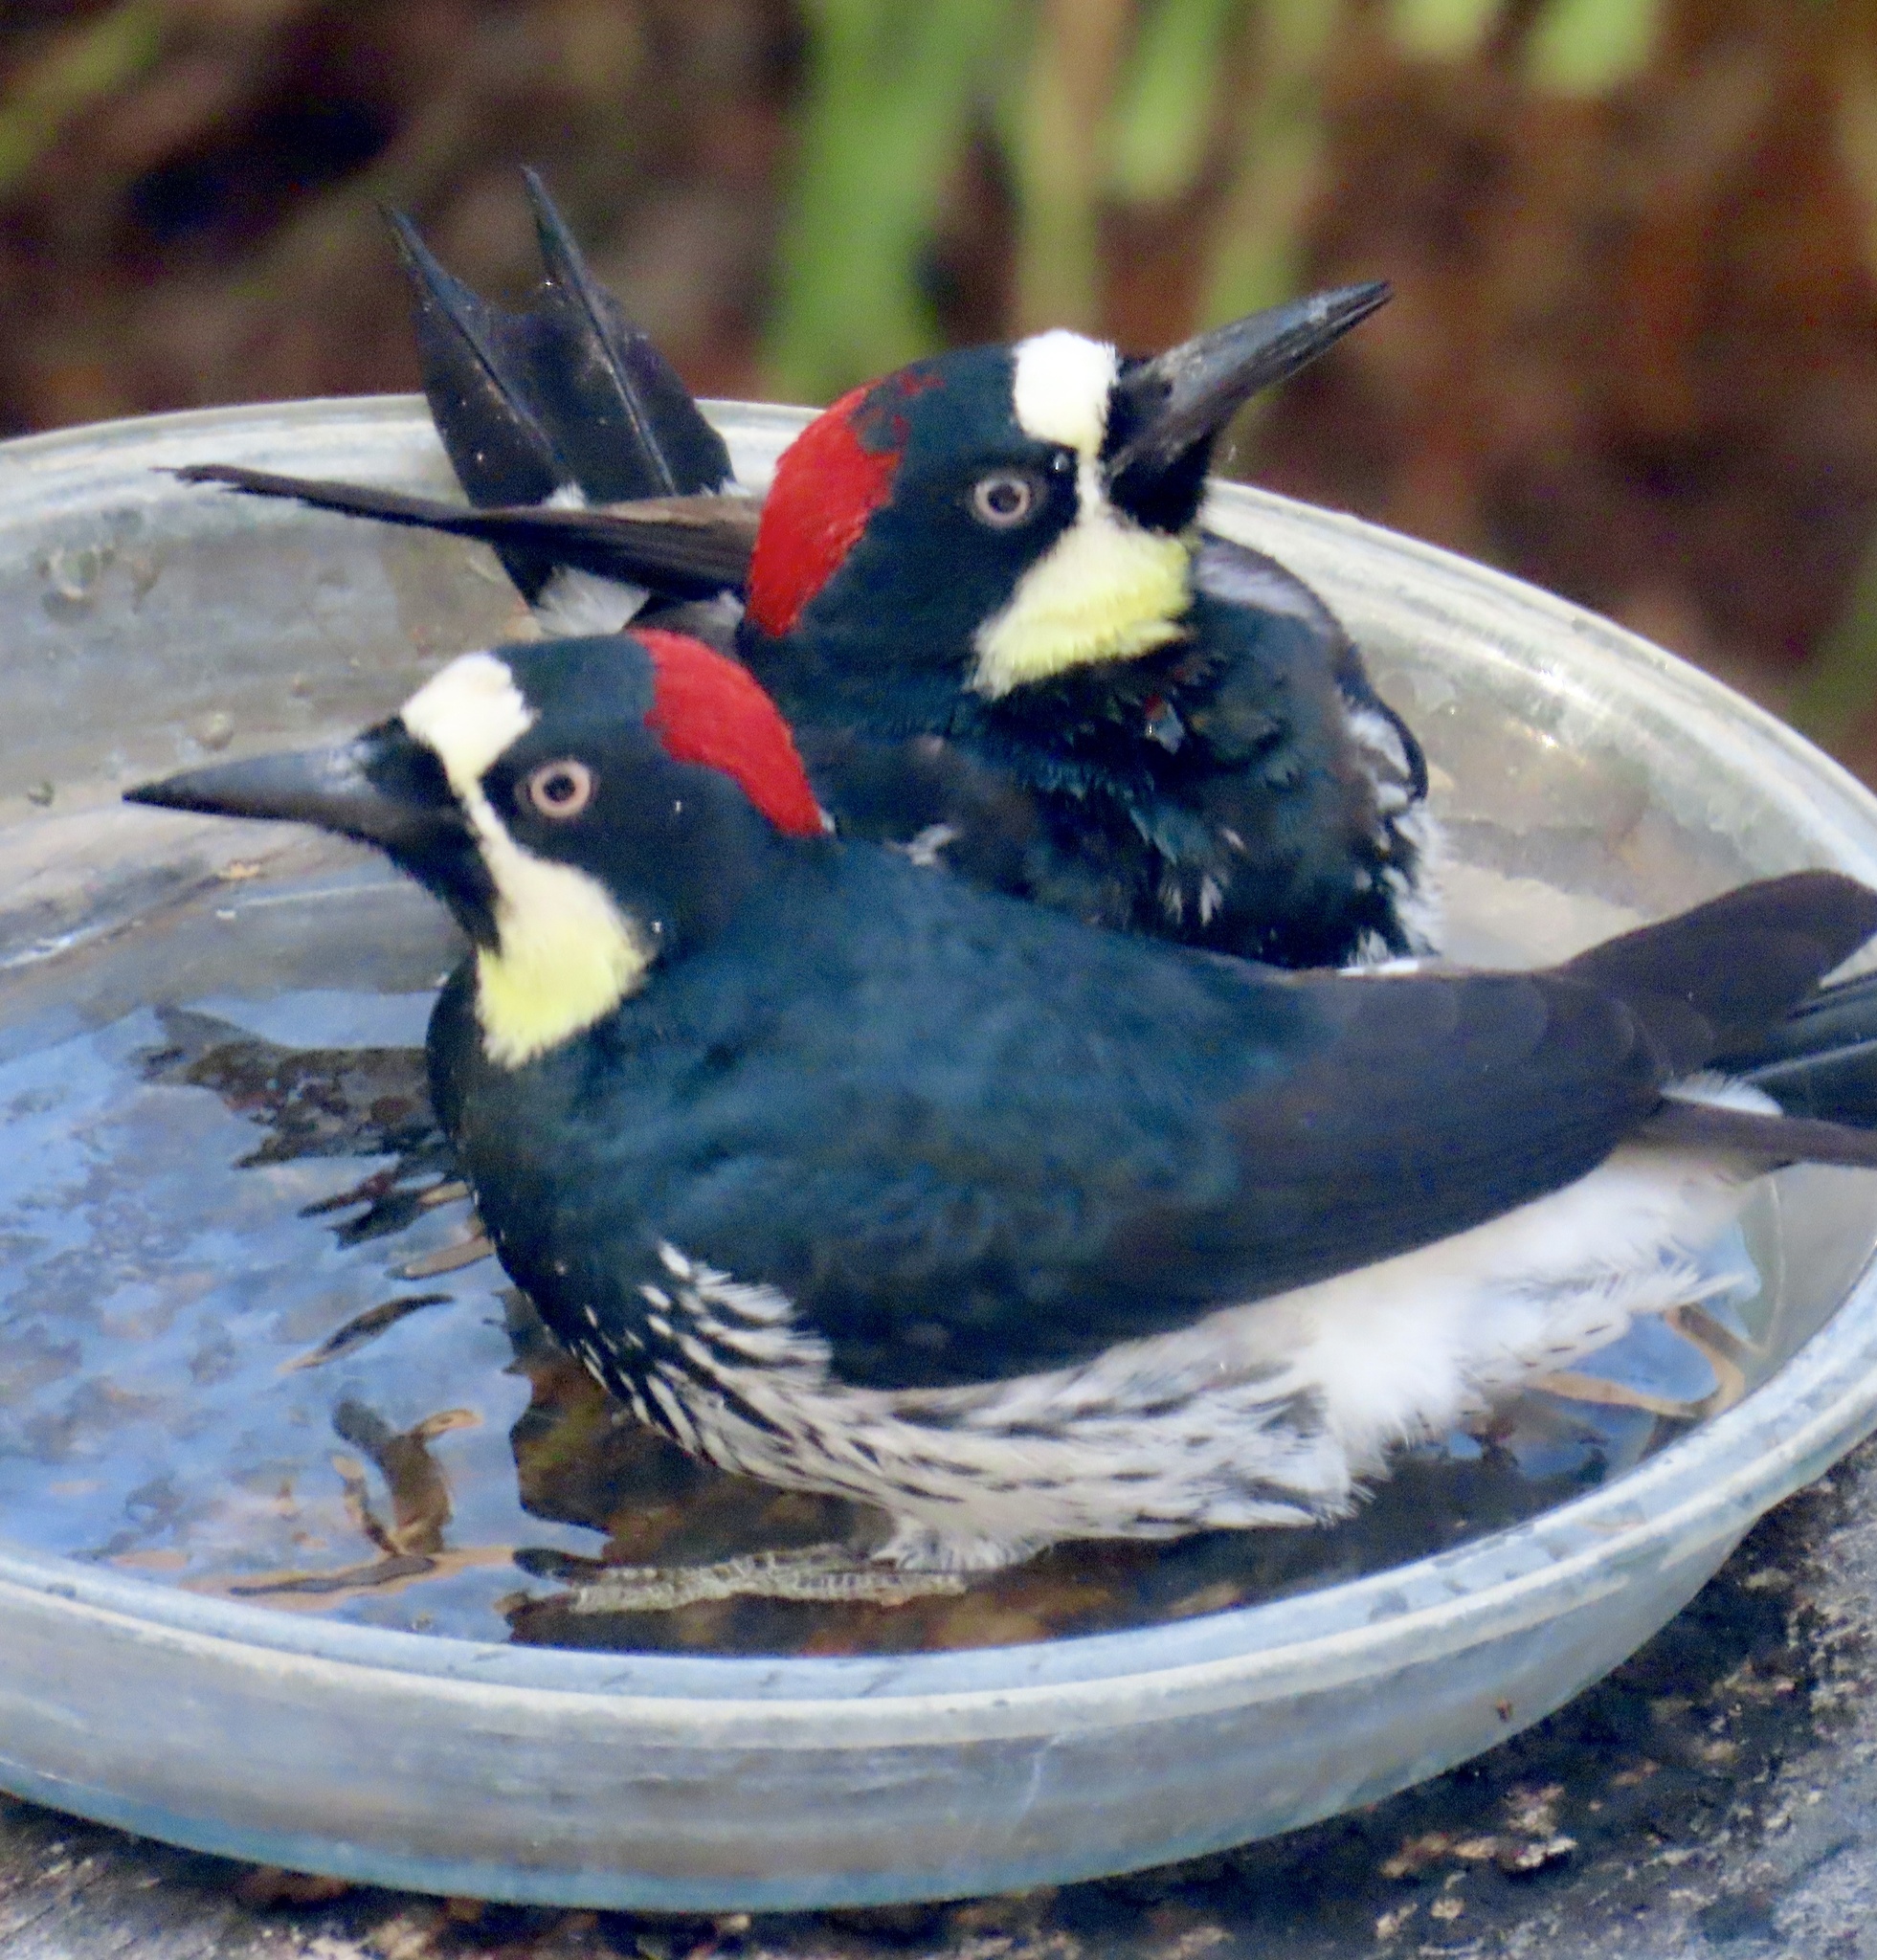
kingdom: Animalia
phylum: Chordata
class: Aves
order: Piciformes
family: Picidae
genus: Melanerpes
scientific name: Melanerpes formicivorus
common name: Acorn woodpecker
